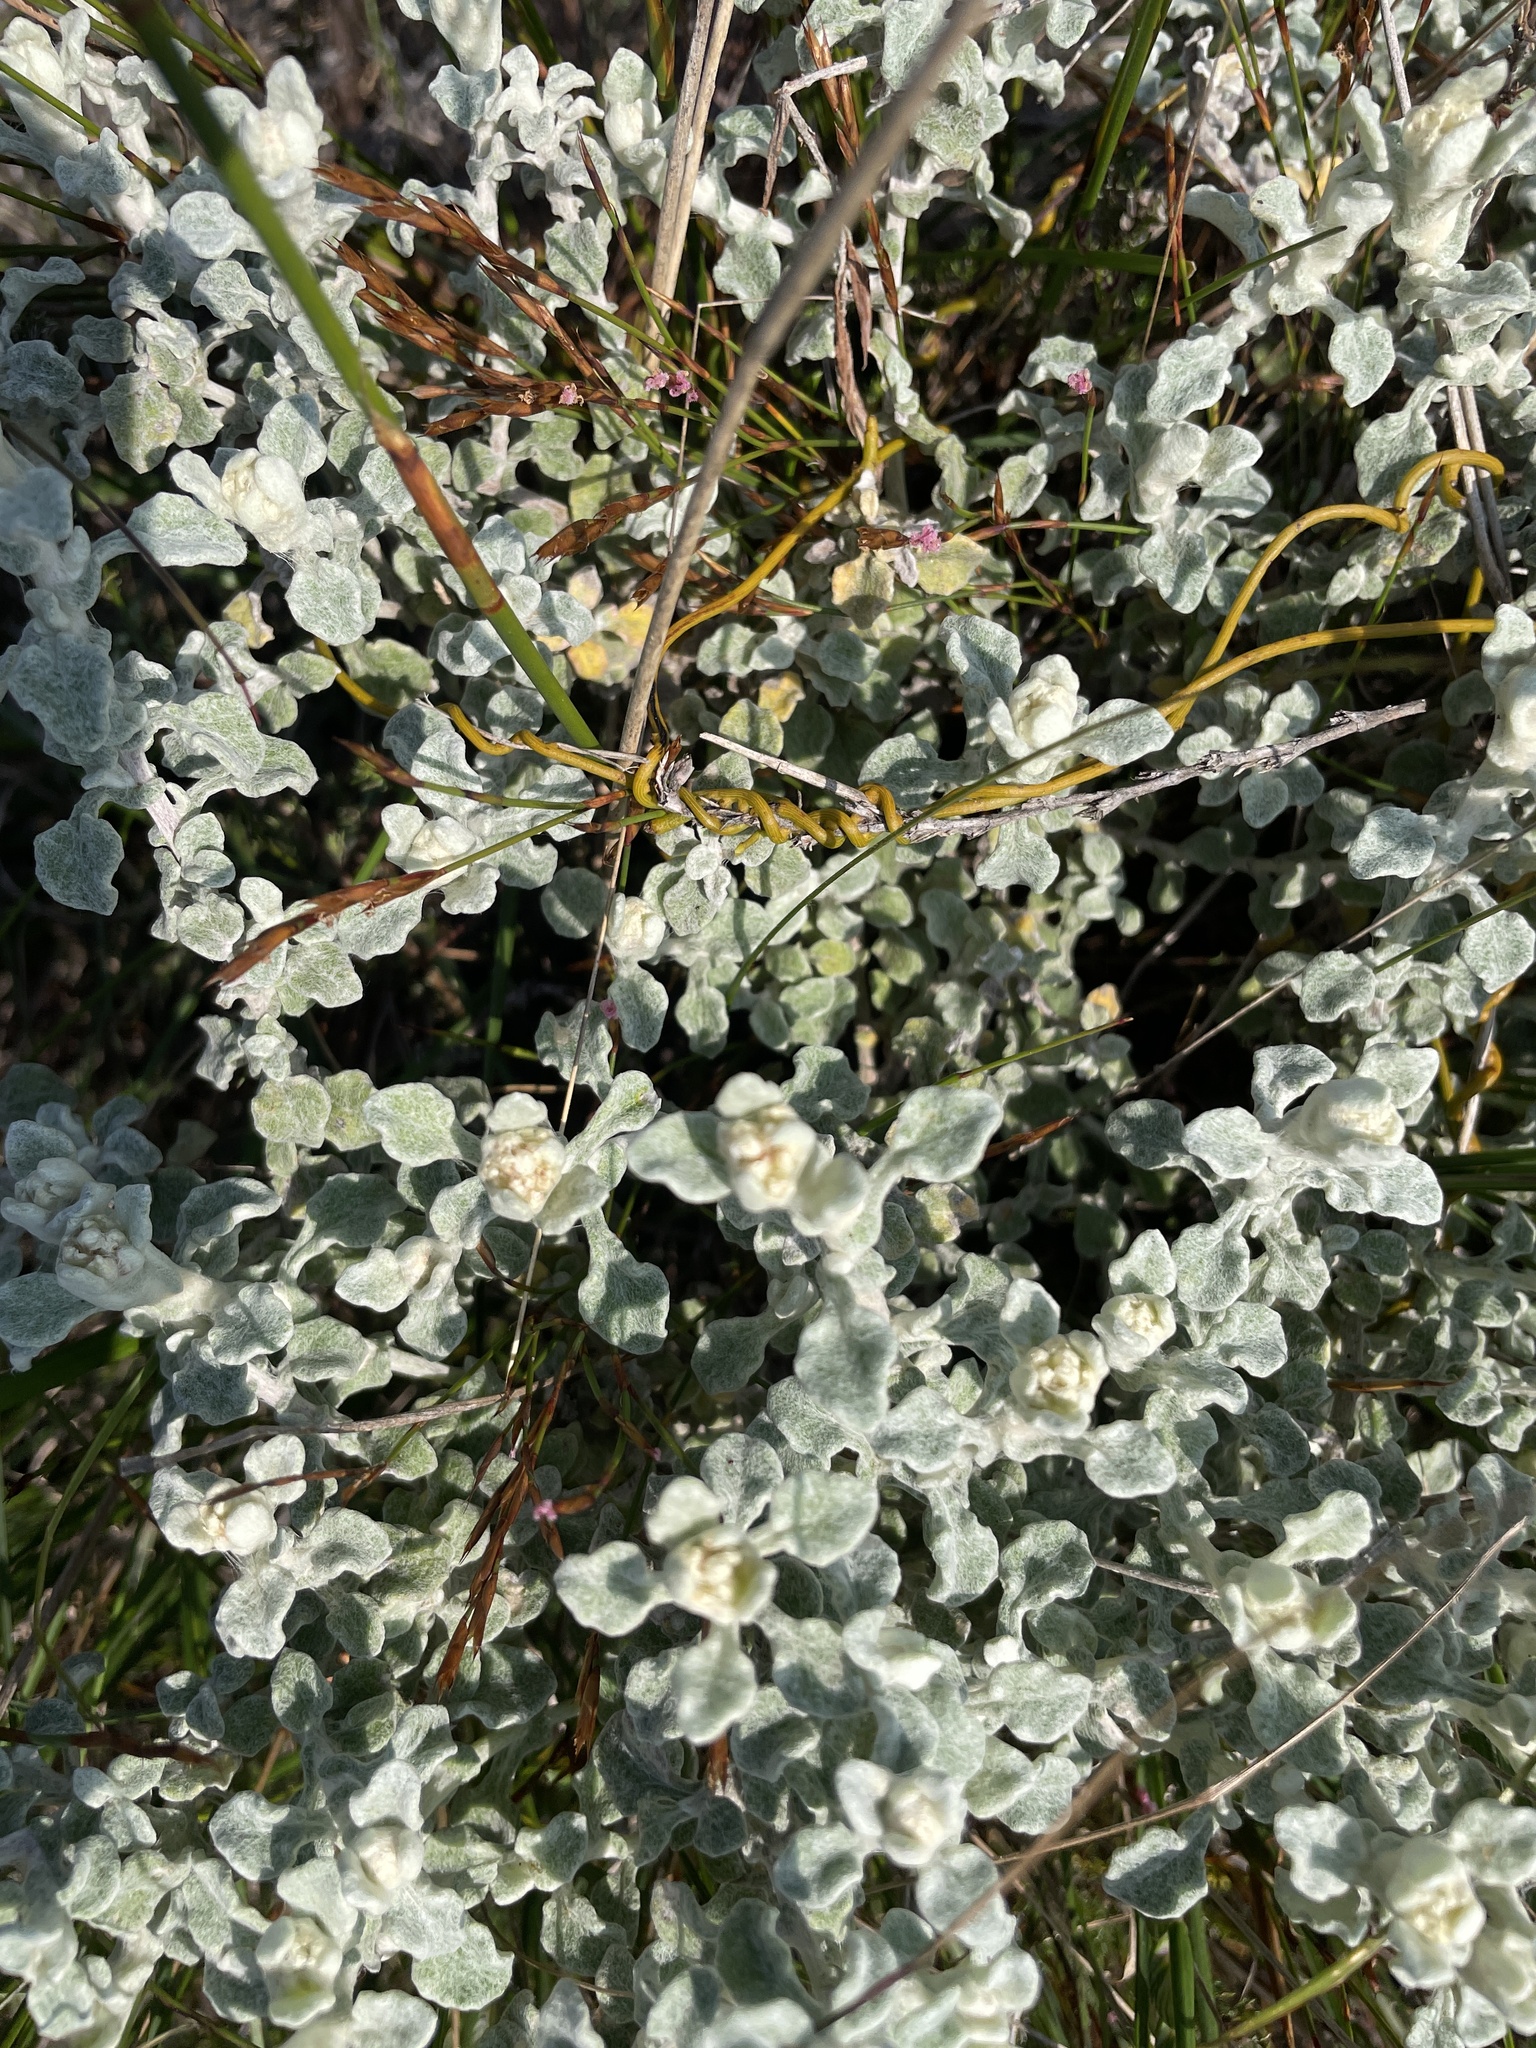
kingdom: Plantae
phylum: Tracheophyta
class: Magnoliopsida
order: Asterales
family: Asteraceae
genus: Helichrysum
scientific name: Helichrysum patulum
